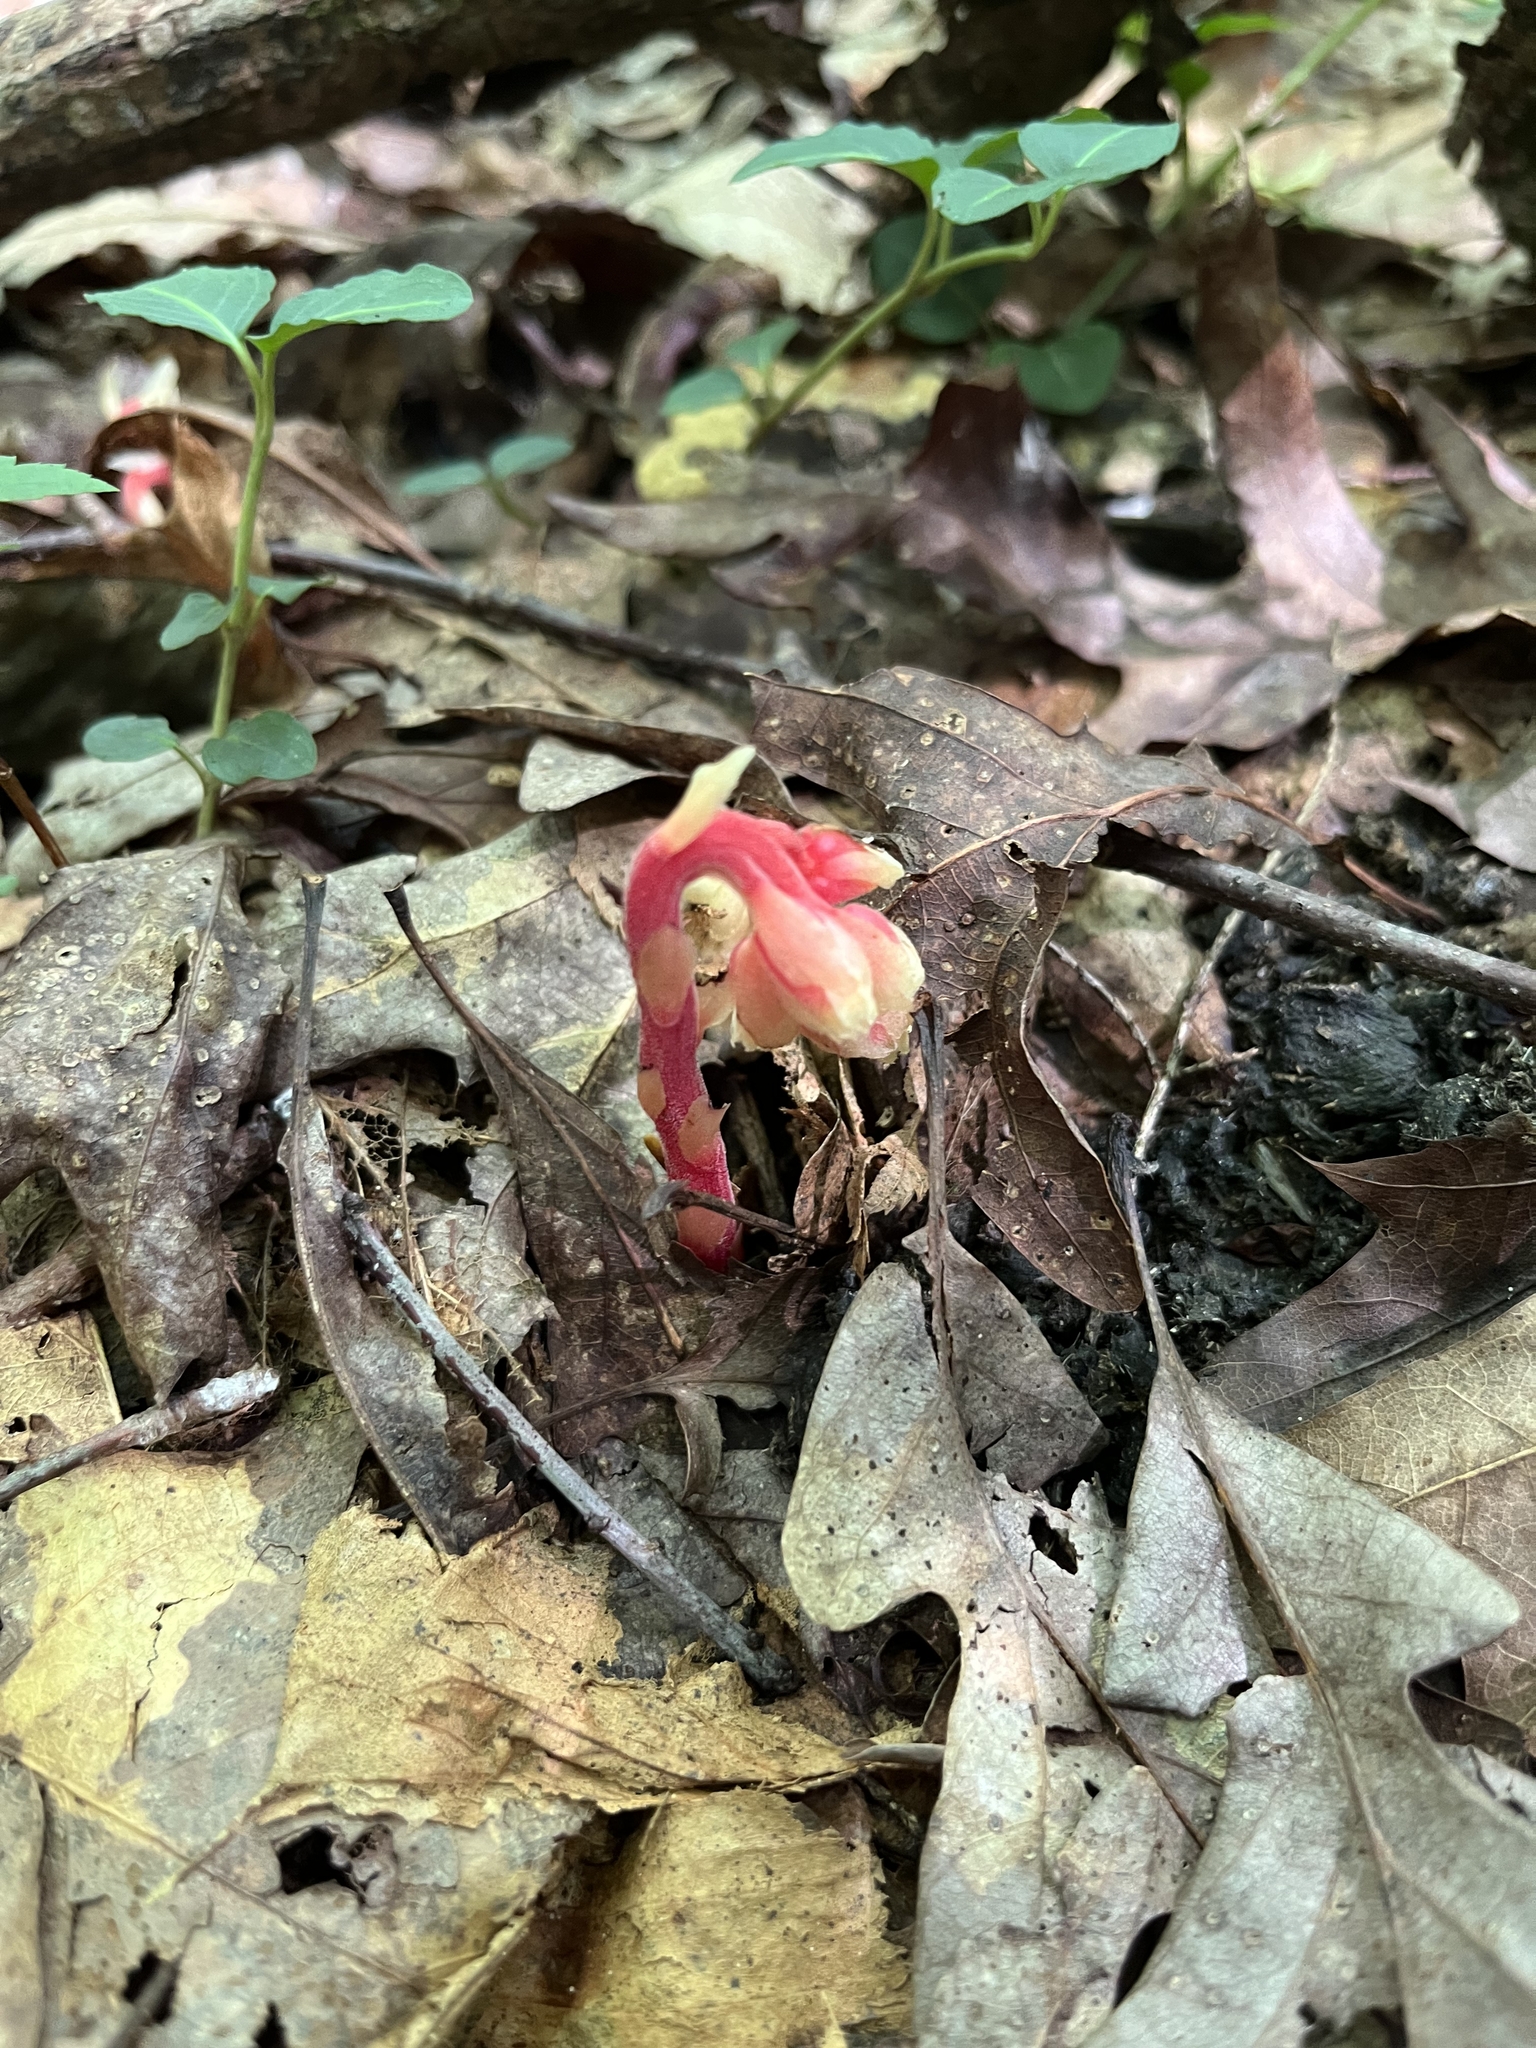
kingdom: Plantae
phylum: Tracheophyta
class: Magnoliopsida
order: Ericales
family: Ericaceae
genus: Hypopitys
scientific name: Hypopitys monotropa
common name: Yellow bird's-nest
